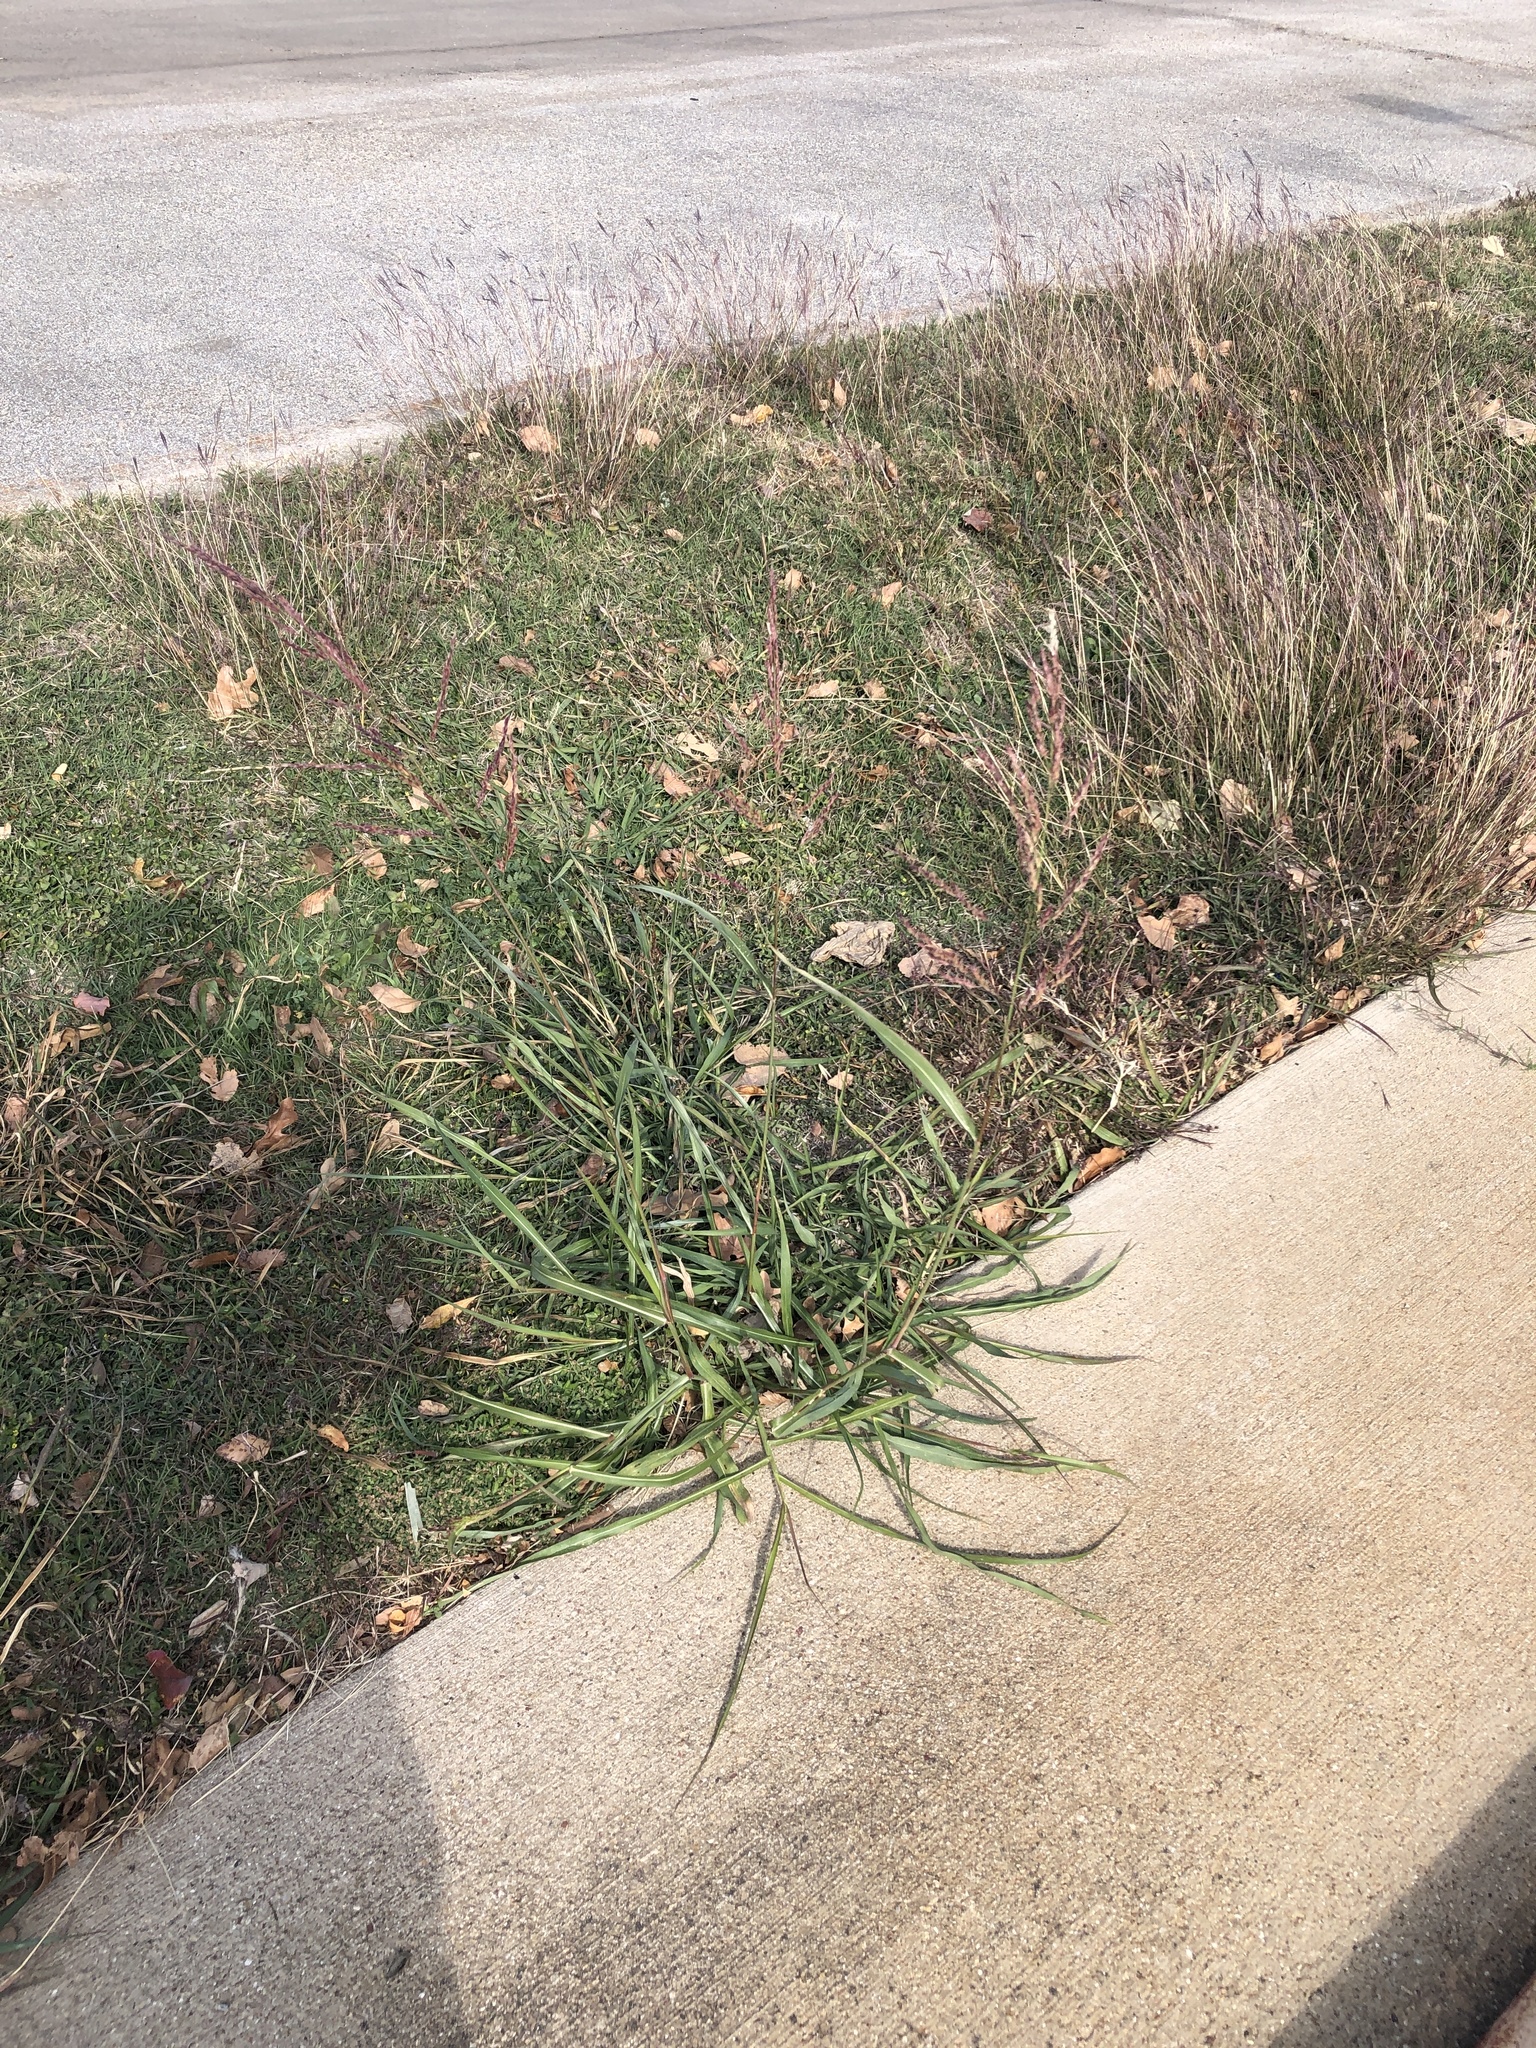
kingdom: Plantae
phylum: Tracheophyta
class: Liliopsida
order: Poales
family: Poaceae
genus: Sorghum
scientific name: Sorghum halepense
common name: Johnson-grass
